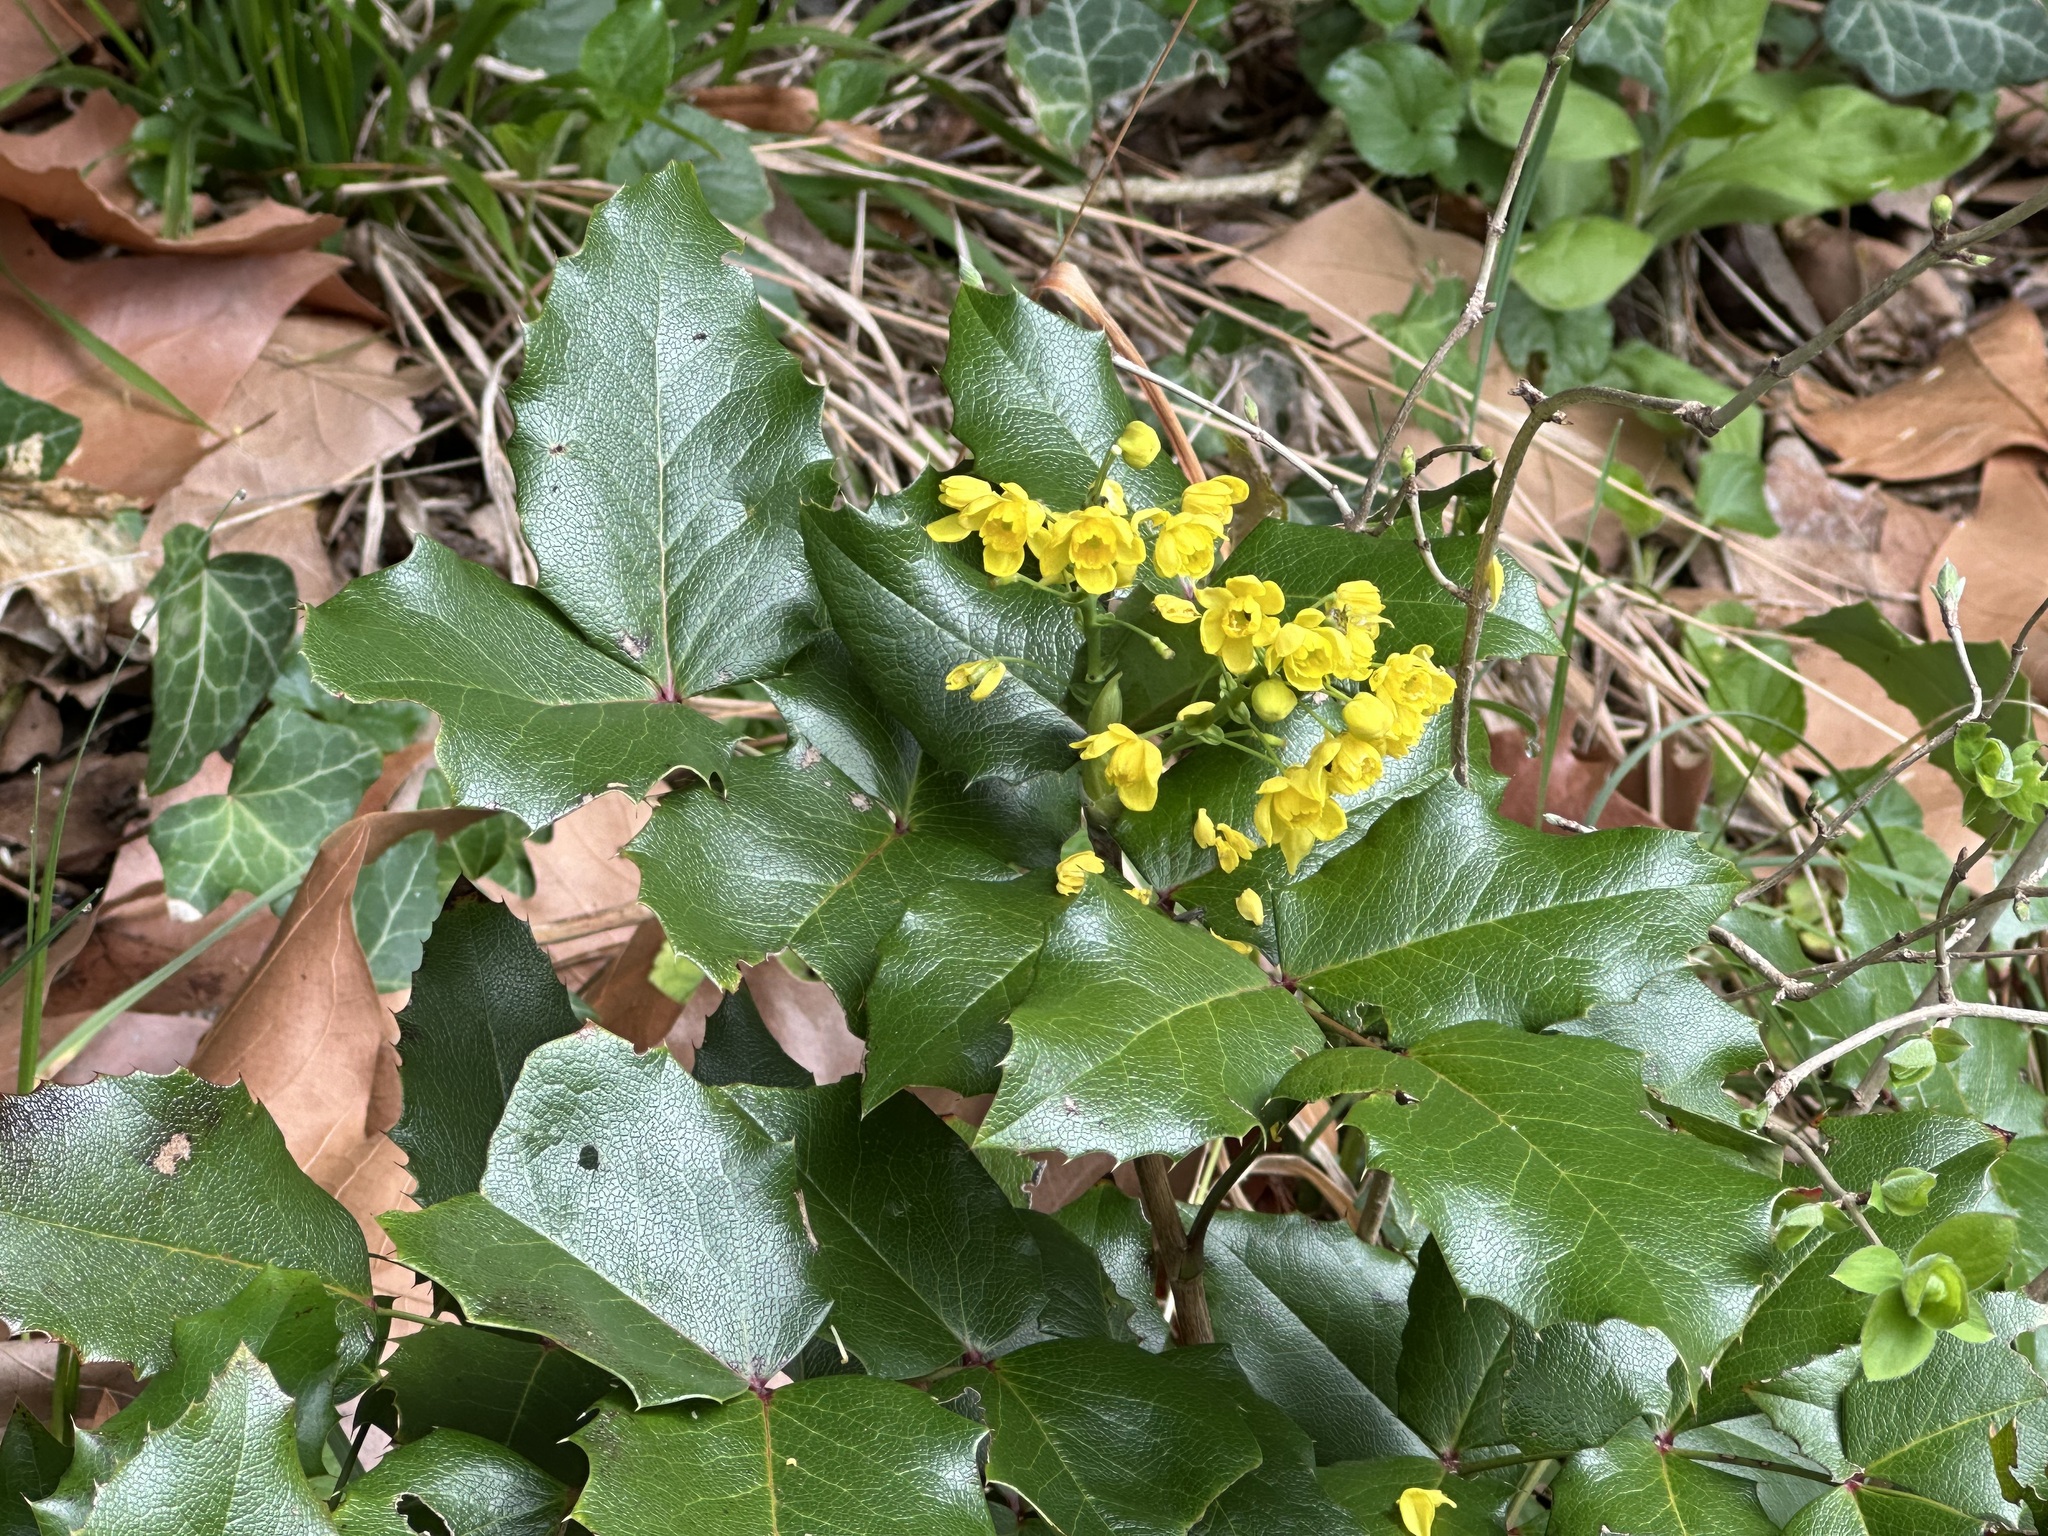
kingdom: Plantae
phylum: Tracheophyta
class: Magnoliopsida
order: Ranunculales
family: Berberidaceae
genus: Mahonia
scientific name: Mahonia aquifolium
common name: Oregon-grape
